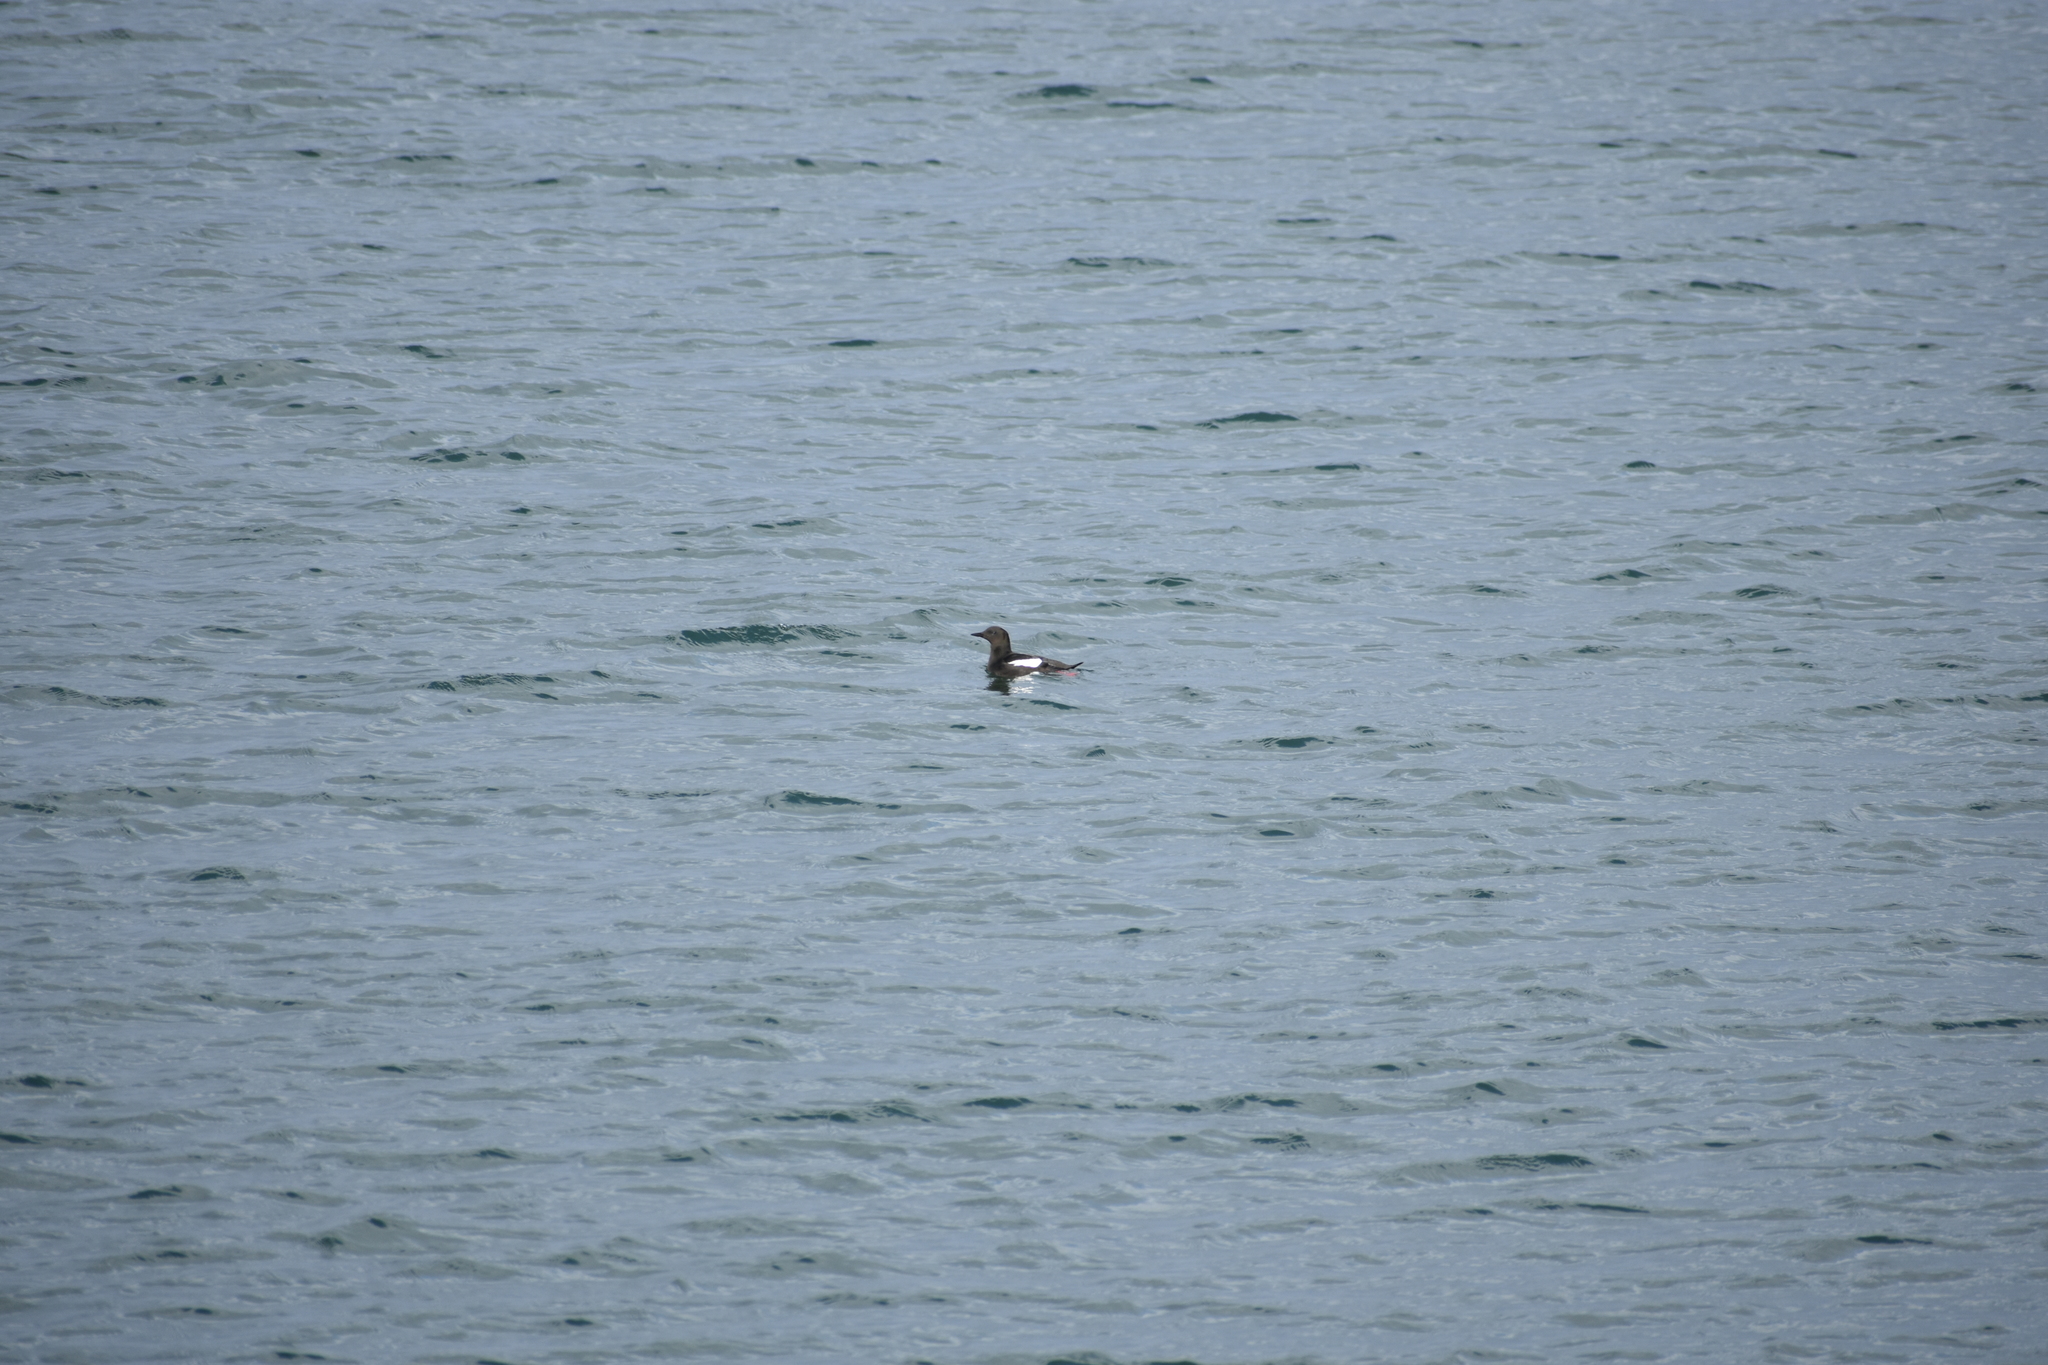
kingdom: Animalia
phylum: Chordata
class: Aves
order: Charadriiformes
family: Alcidae
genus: Cepphus
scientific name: Cepphus grylle
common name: Black guillemot
